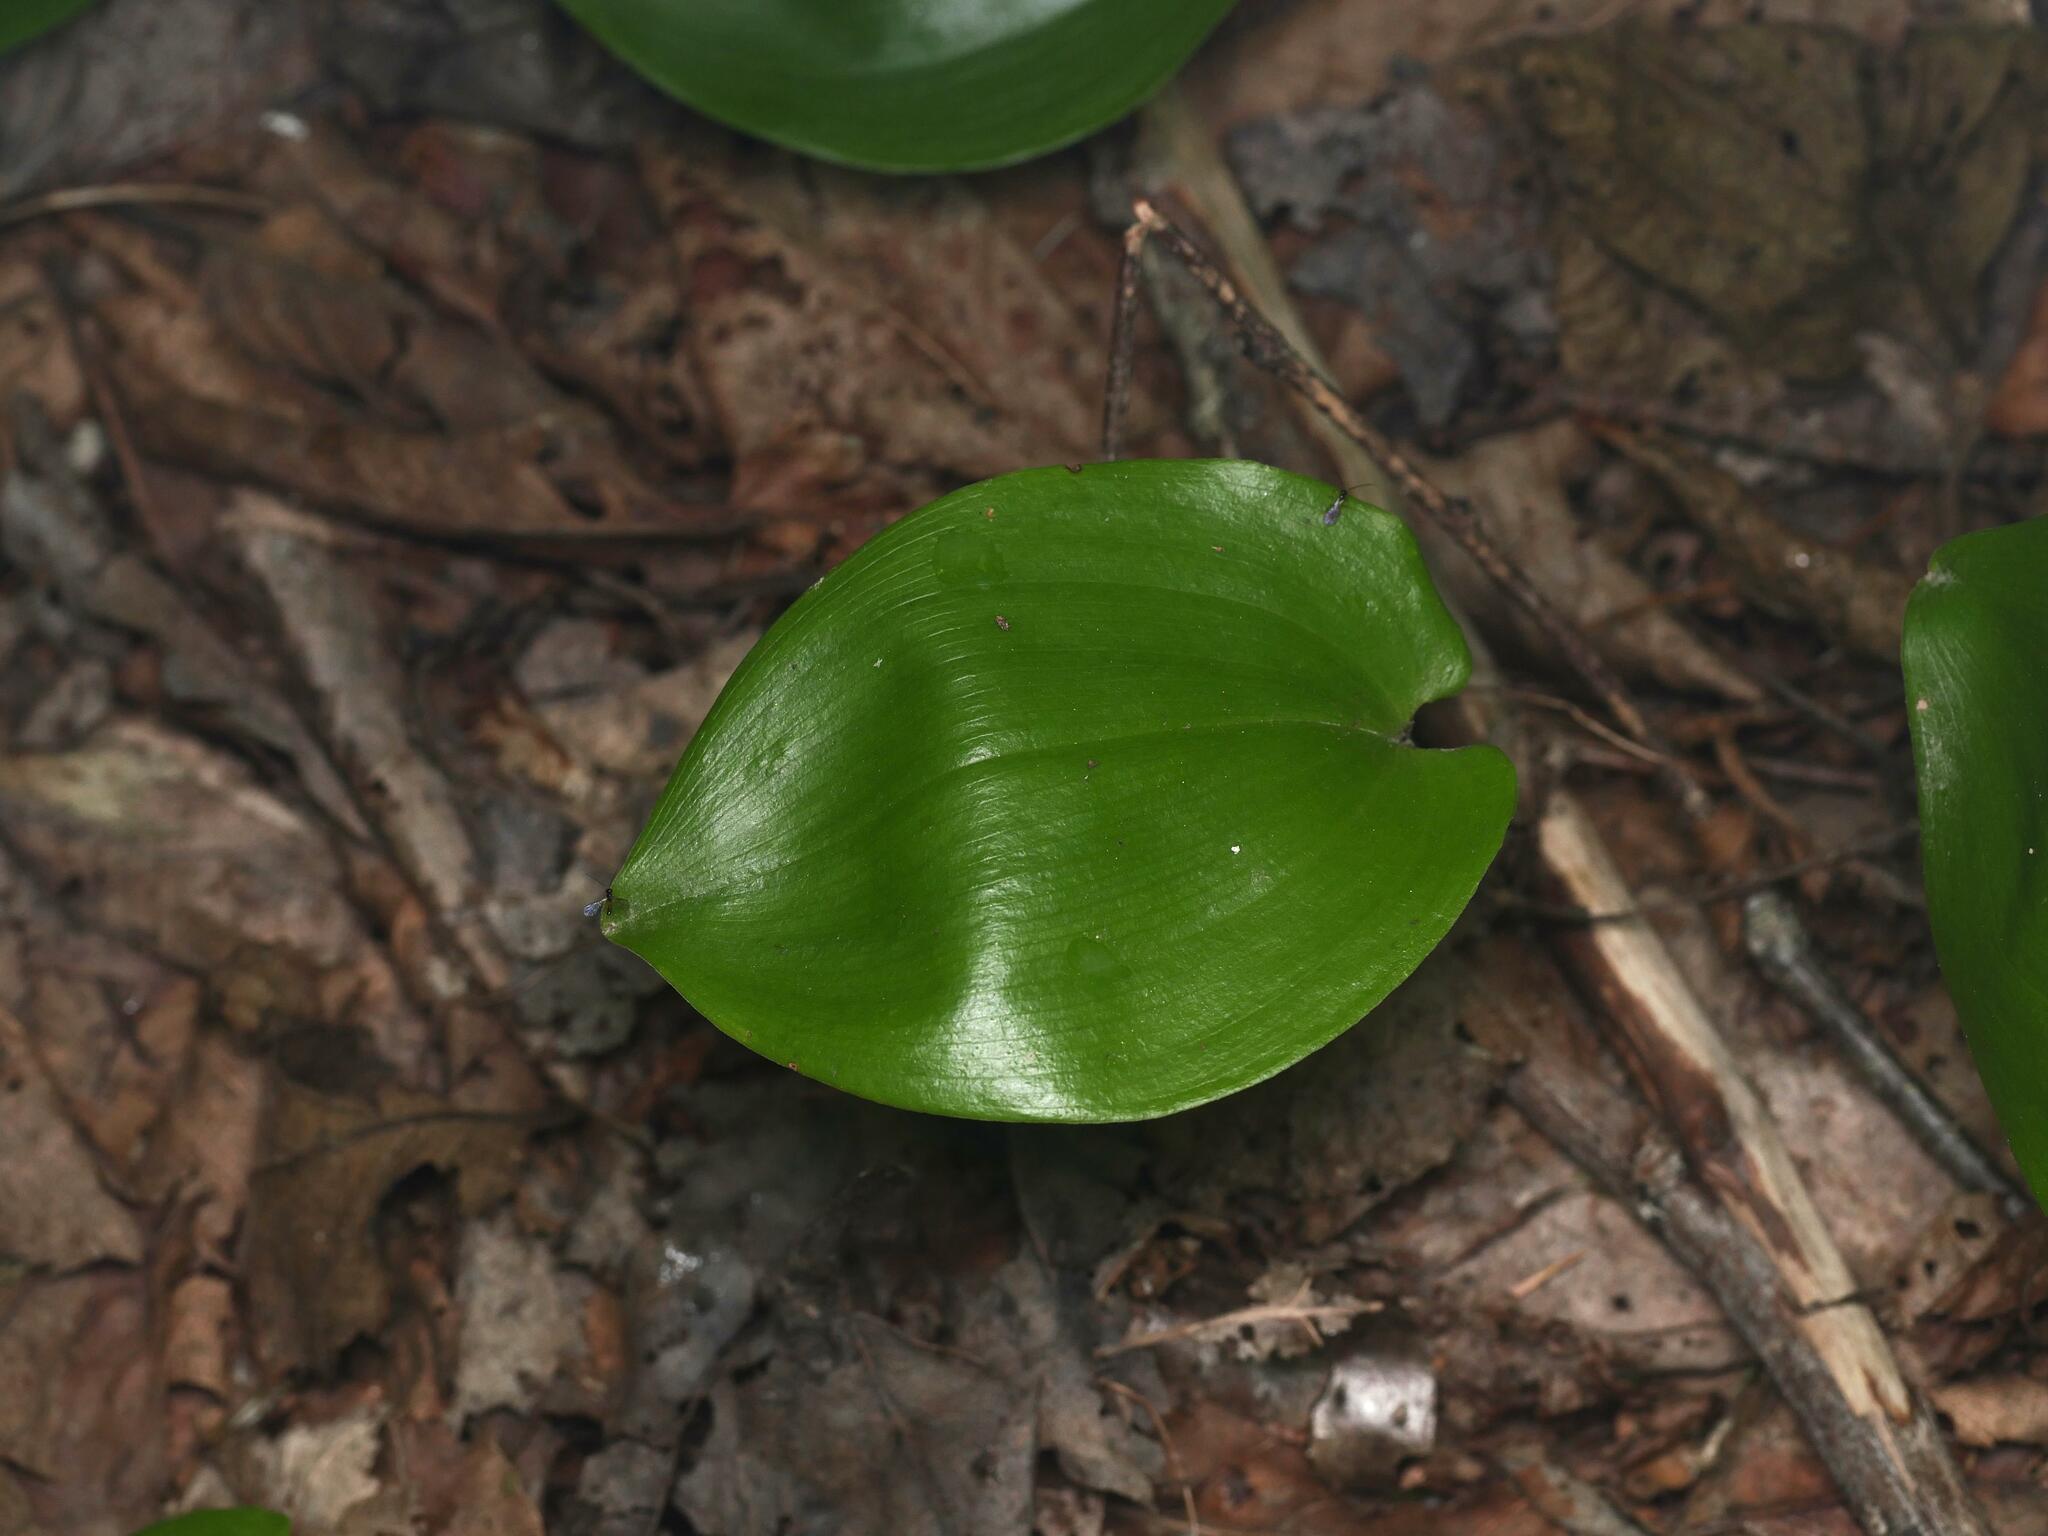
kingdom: Plantae
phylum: Tracheophyta
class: Liliopsida
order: Asparagales
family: Asparagaceae
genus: Maianthemum
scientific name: Maianthemum canadense
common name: False lily-of-the-valley
